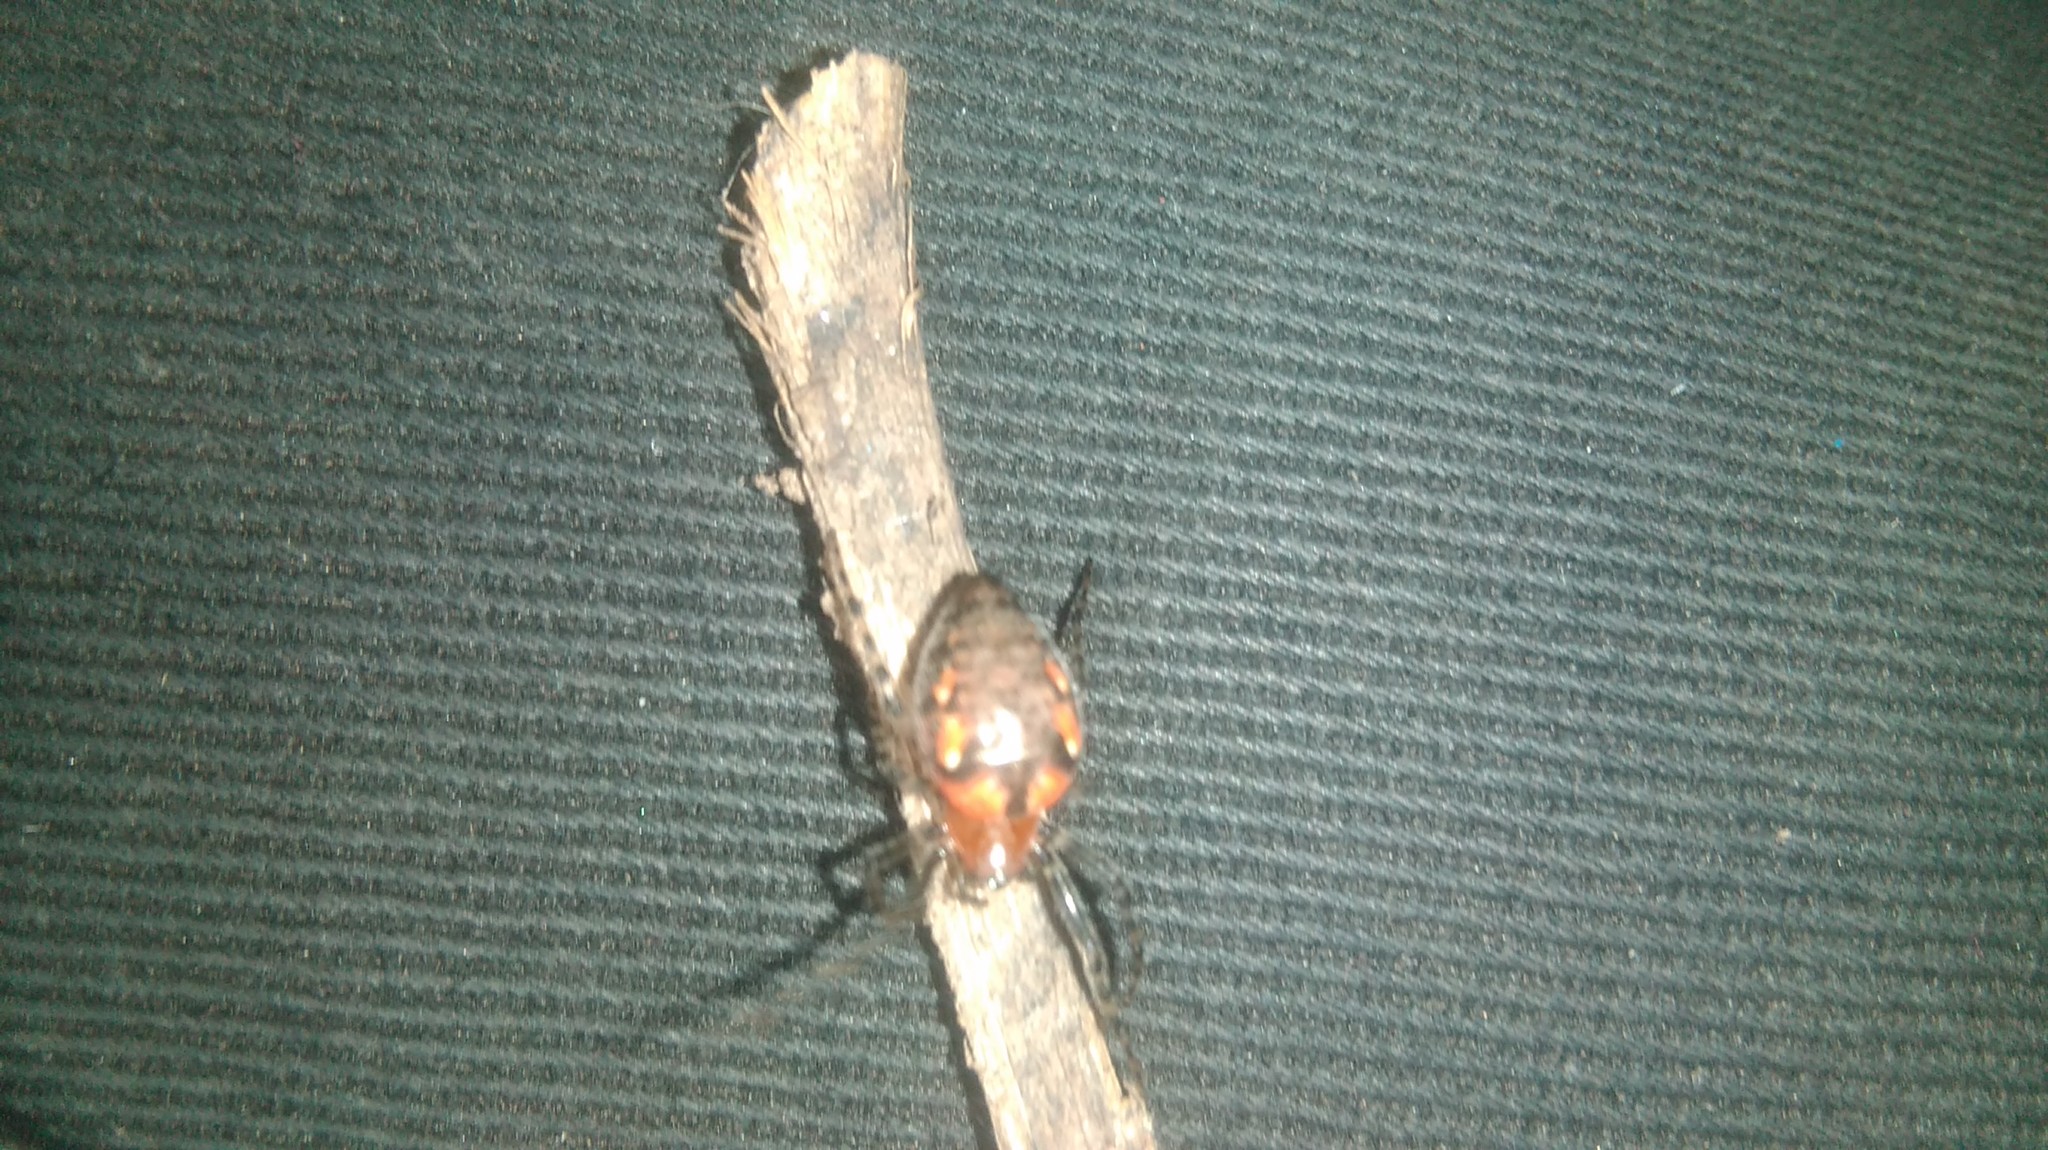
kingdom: Animalia
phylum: Arthropoda
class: Arachnida
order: Araneae
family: Araneidae
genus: Alpaida
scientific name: Alpaida gallardoi
